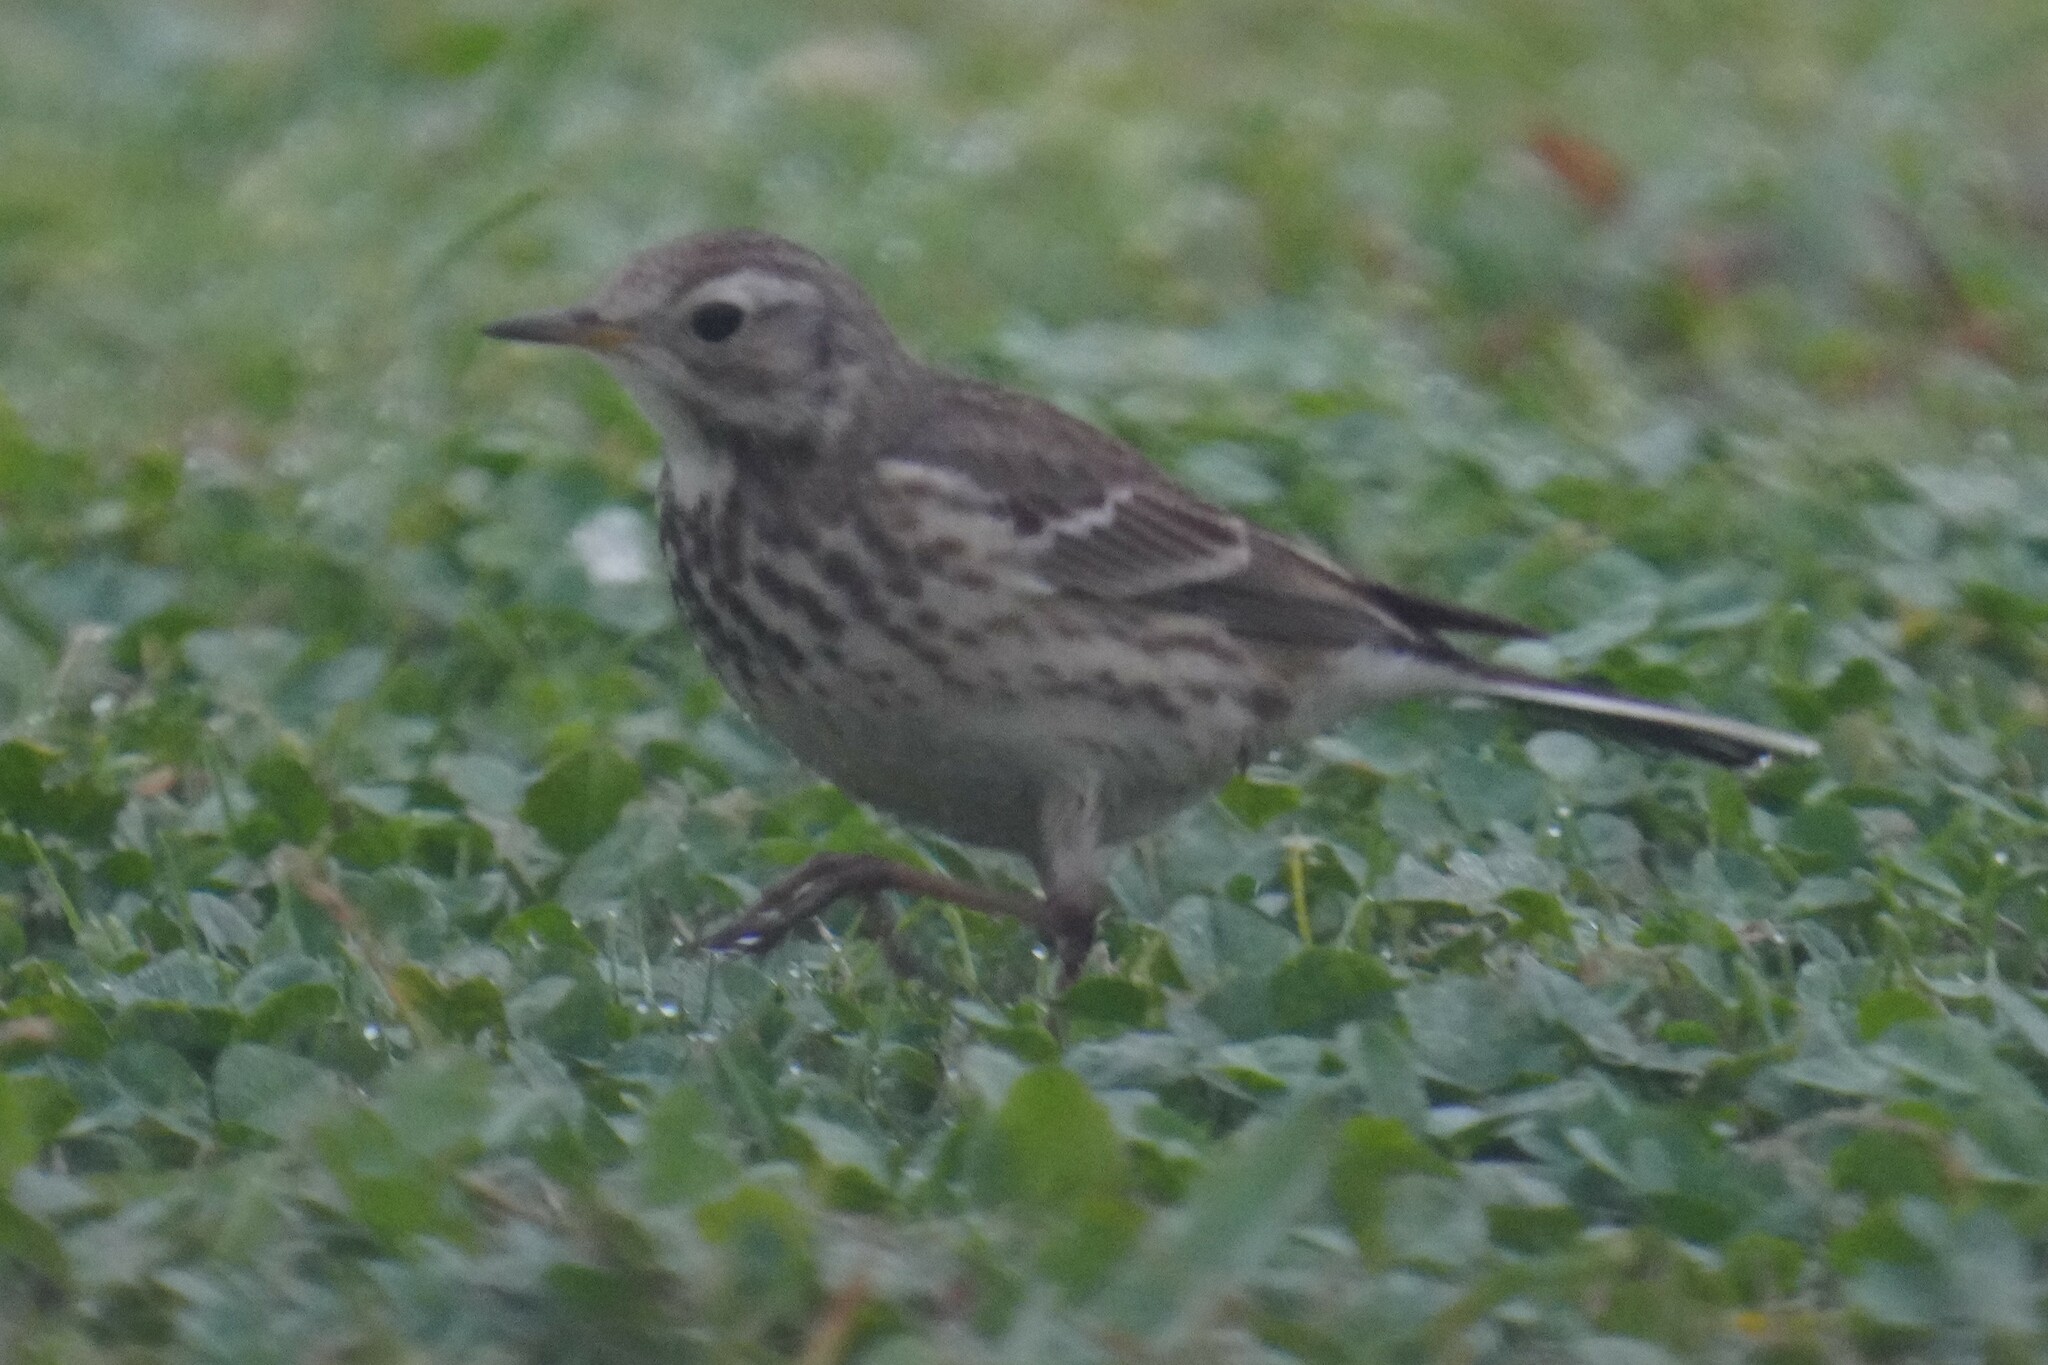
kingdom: Animalia
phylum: Chordata
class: Aves
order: Passeriformes
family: Motacillidae
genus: Anthus
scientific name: Anthus rubescens
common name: Buff-bellied pipit
